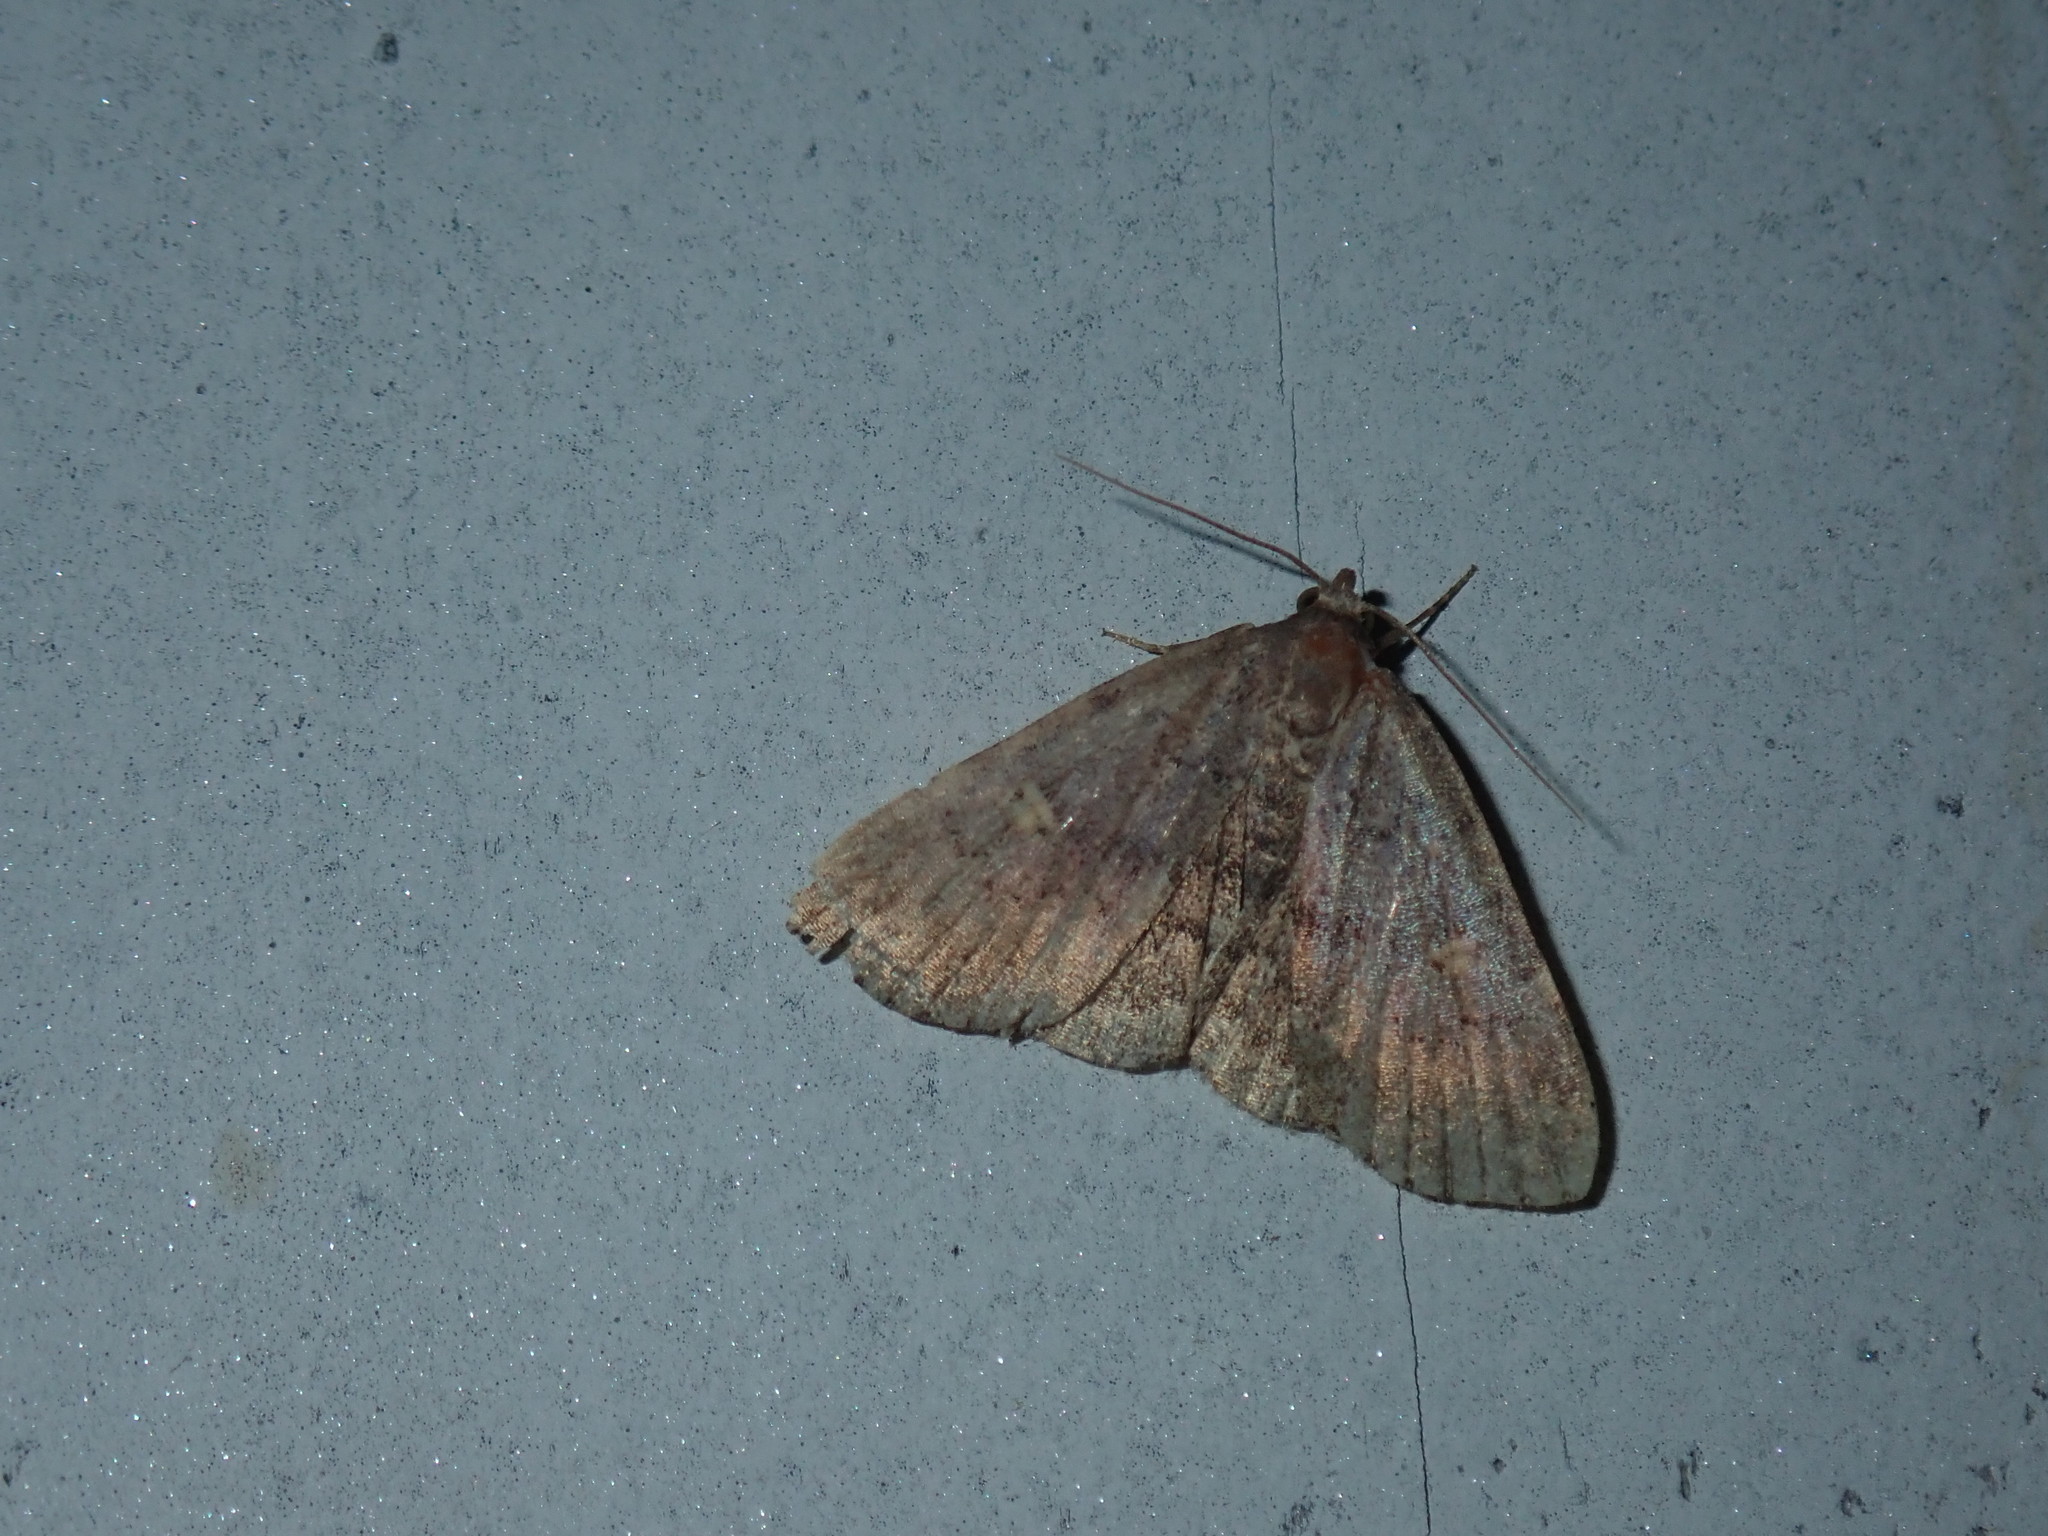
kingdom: Animalia
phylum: Arthropoda
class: Insecta
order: Lepidoptera
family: Erebidae
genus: Idia
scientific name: Idia aemula
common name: Common idia moth
